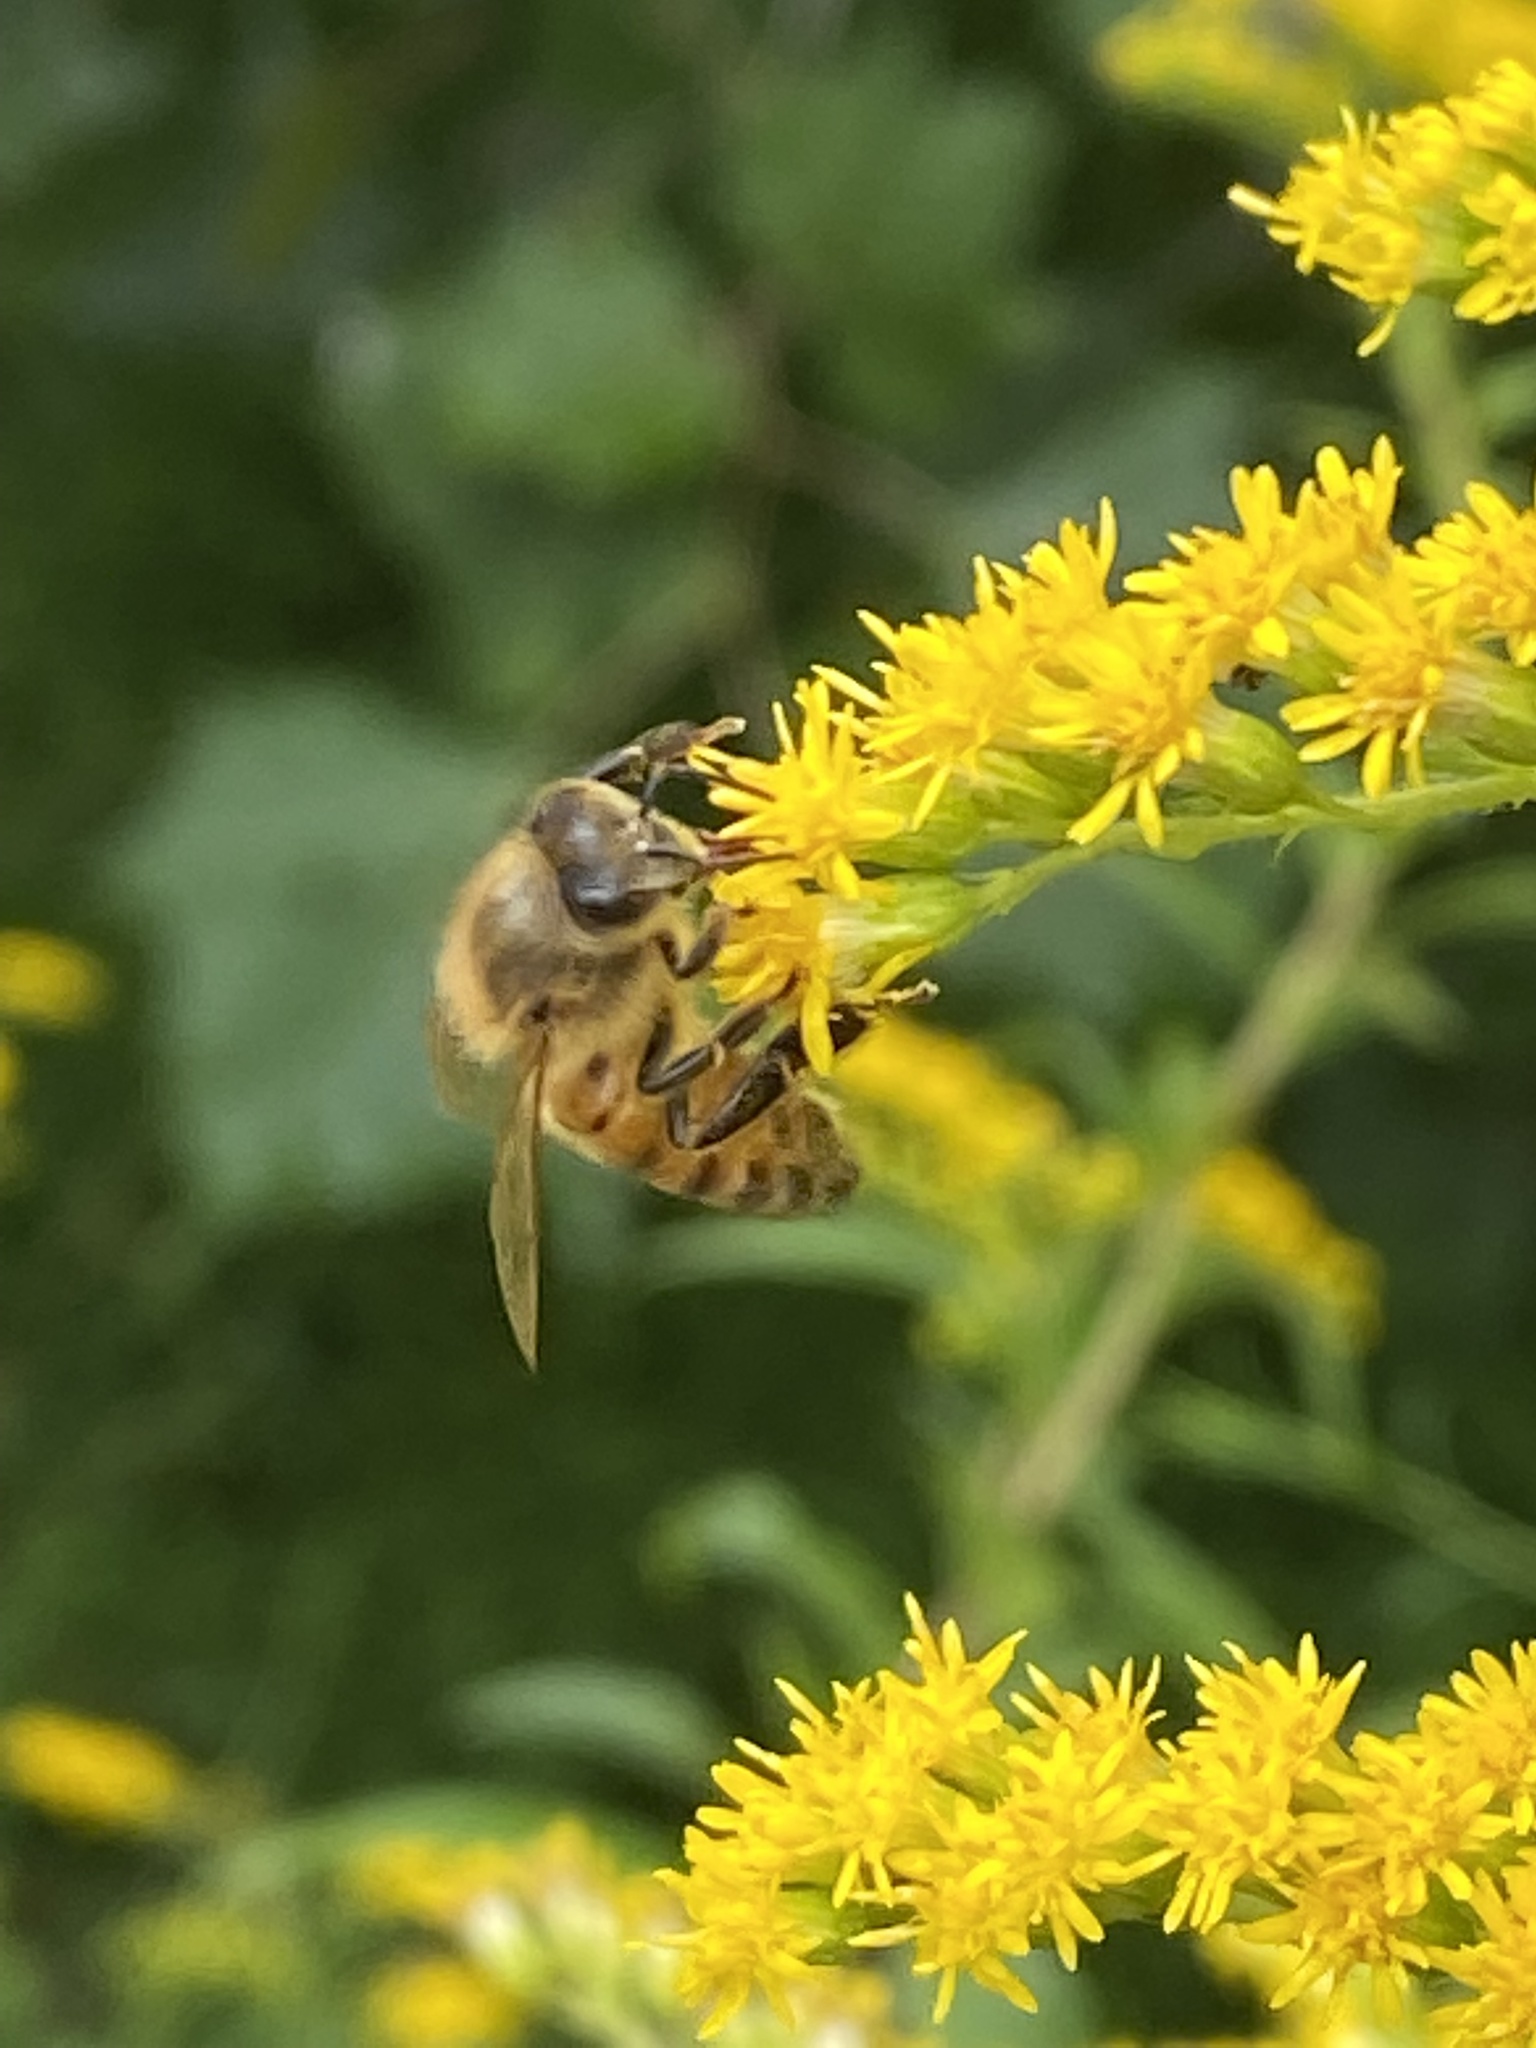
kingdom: Animalia
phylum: Arthropoda
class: Insecta
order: Hymenoptera
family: Apidae
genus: Apis
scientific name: Apis mellifera
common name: Honey bee
